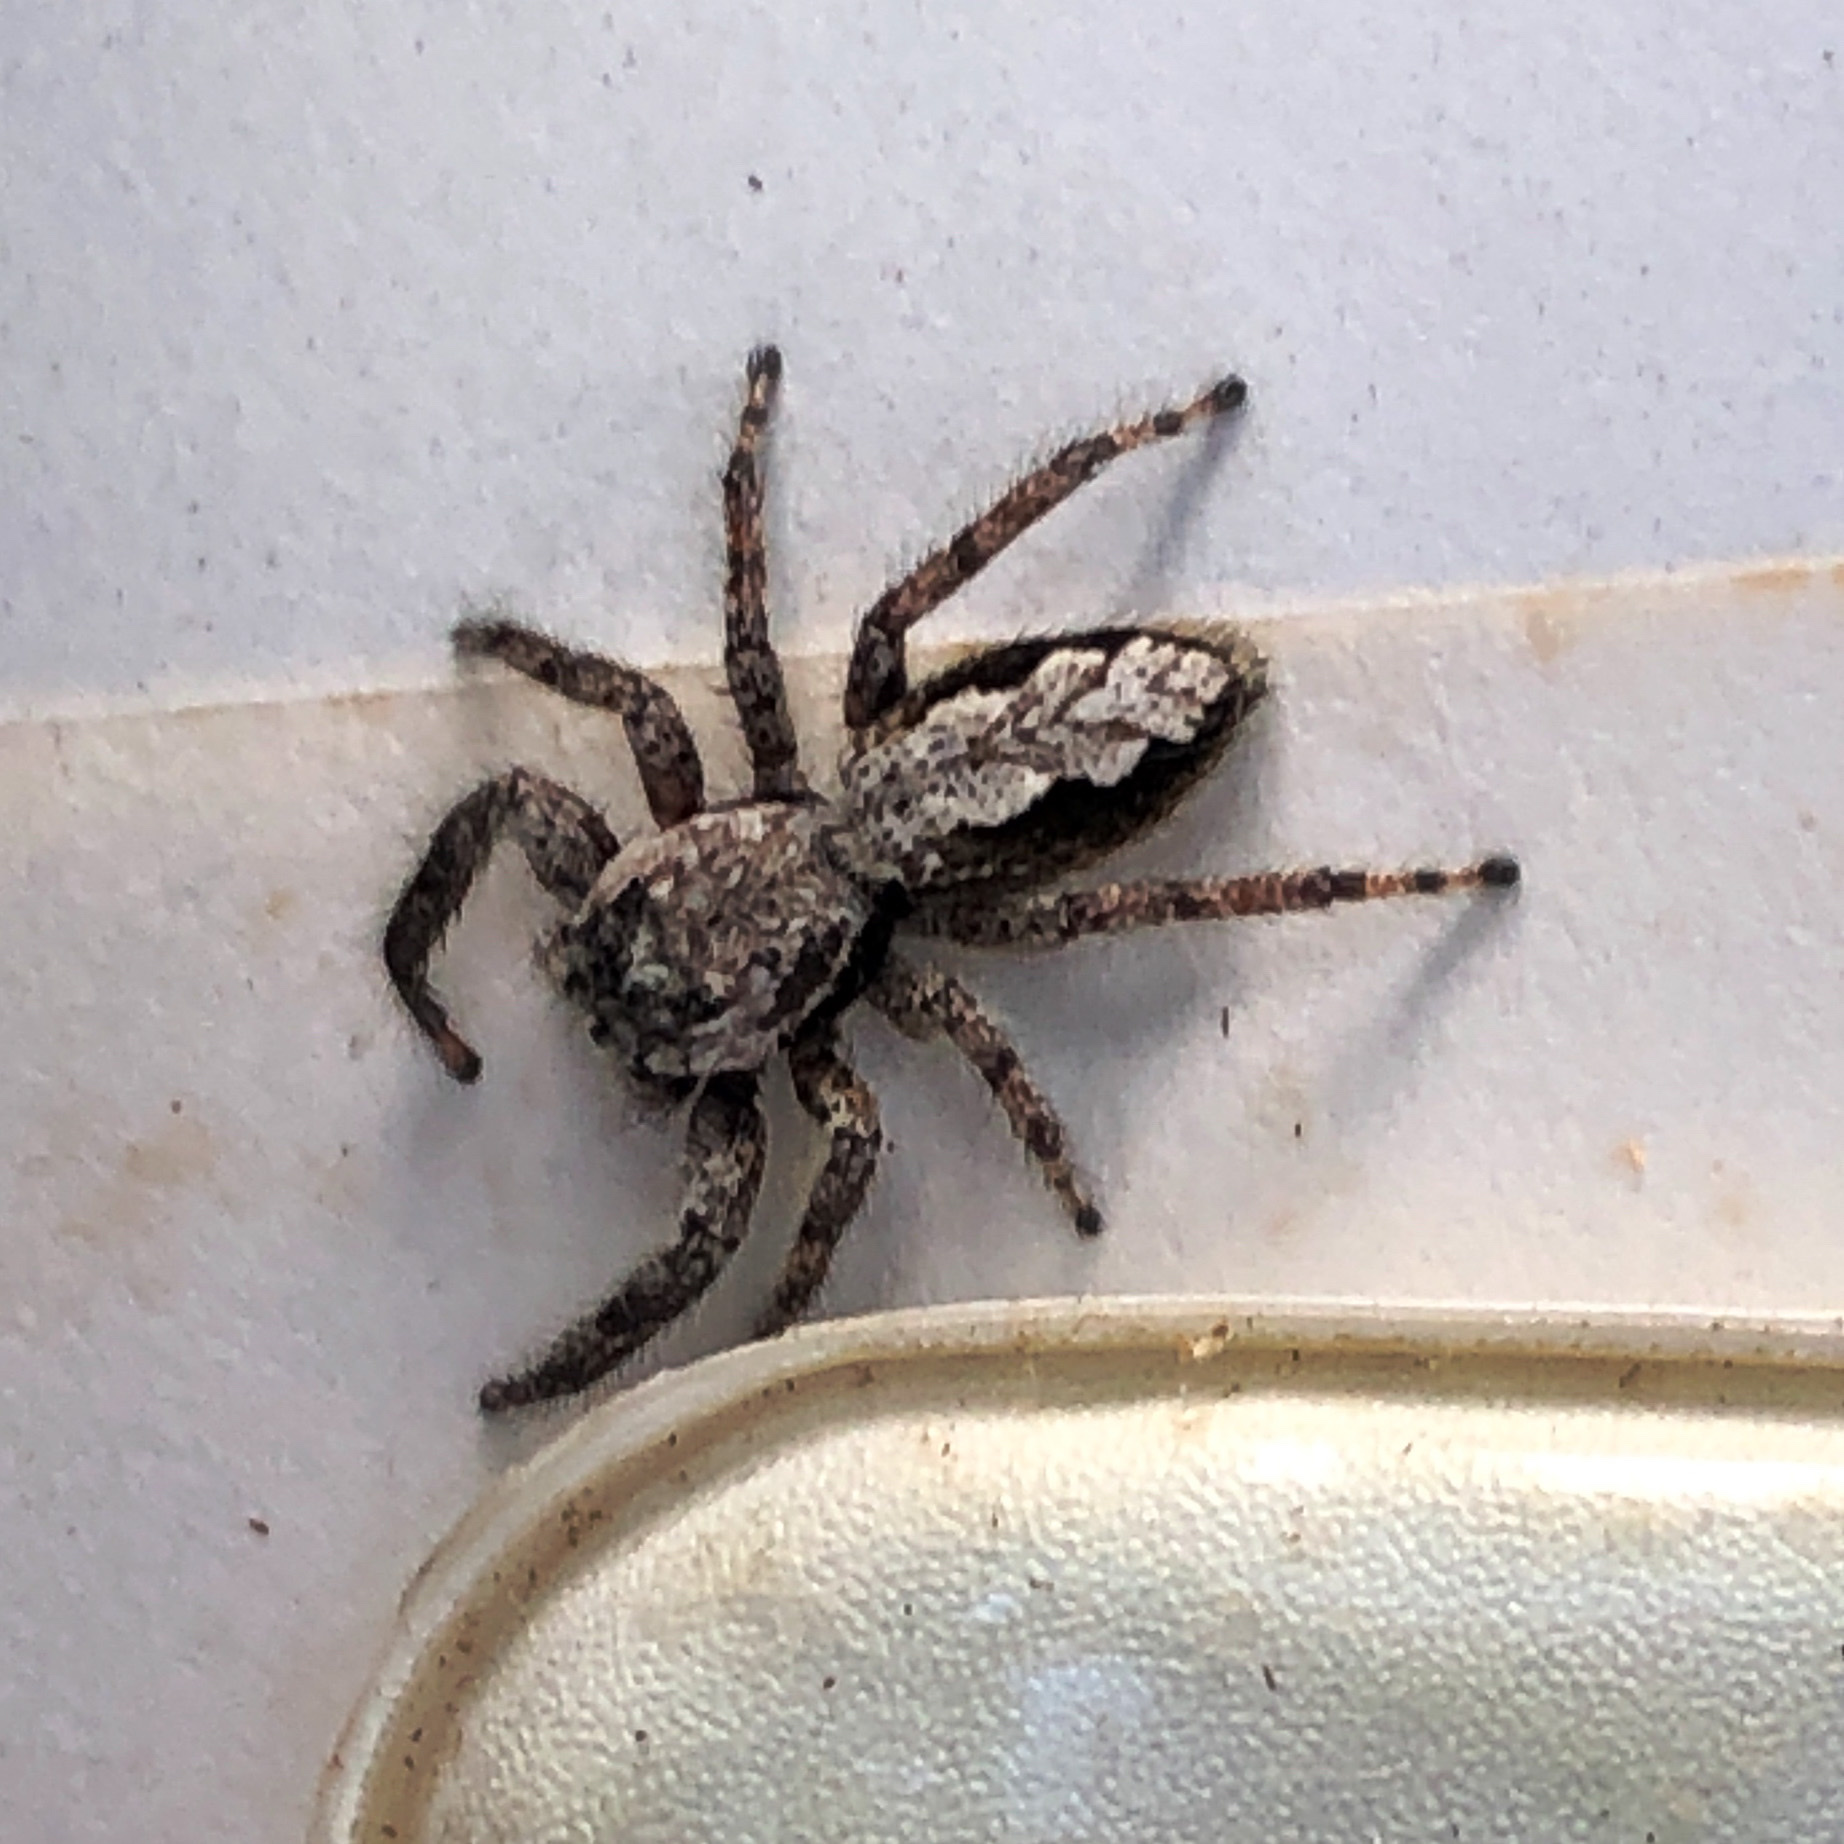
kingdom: Animalia
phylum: Arthropoda
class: Arachnida
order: Araneae
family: Salticidae
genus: Platycryptus
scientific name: Platycryptus undatus
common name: Tan jumping spider
